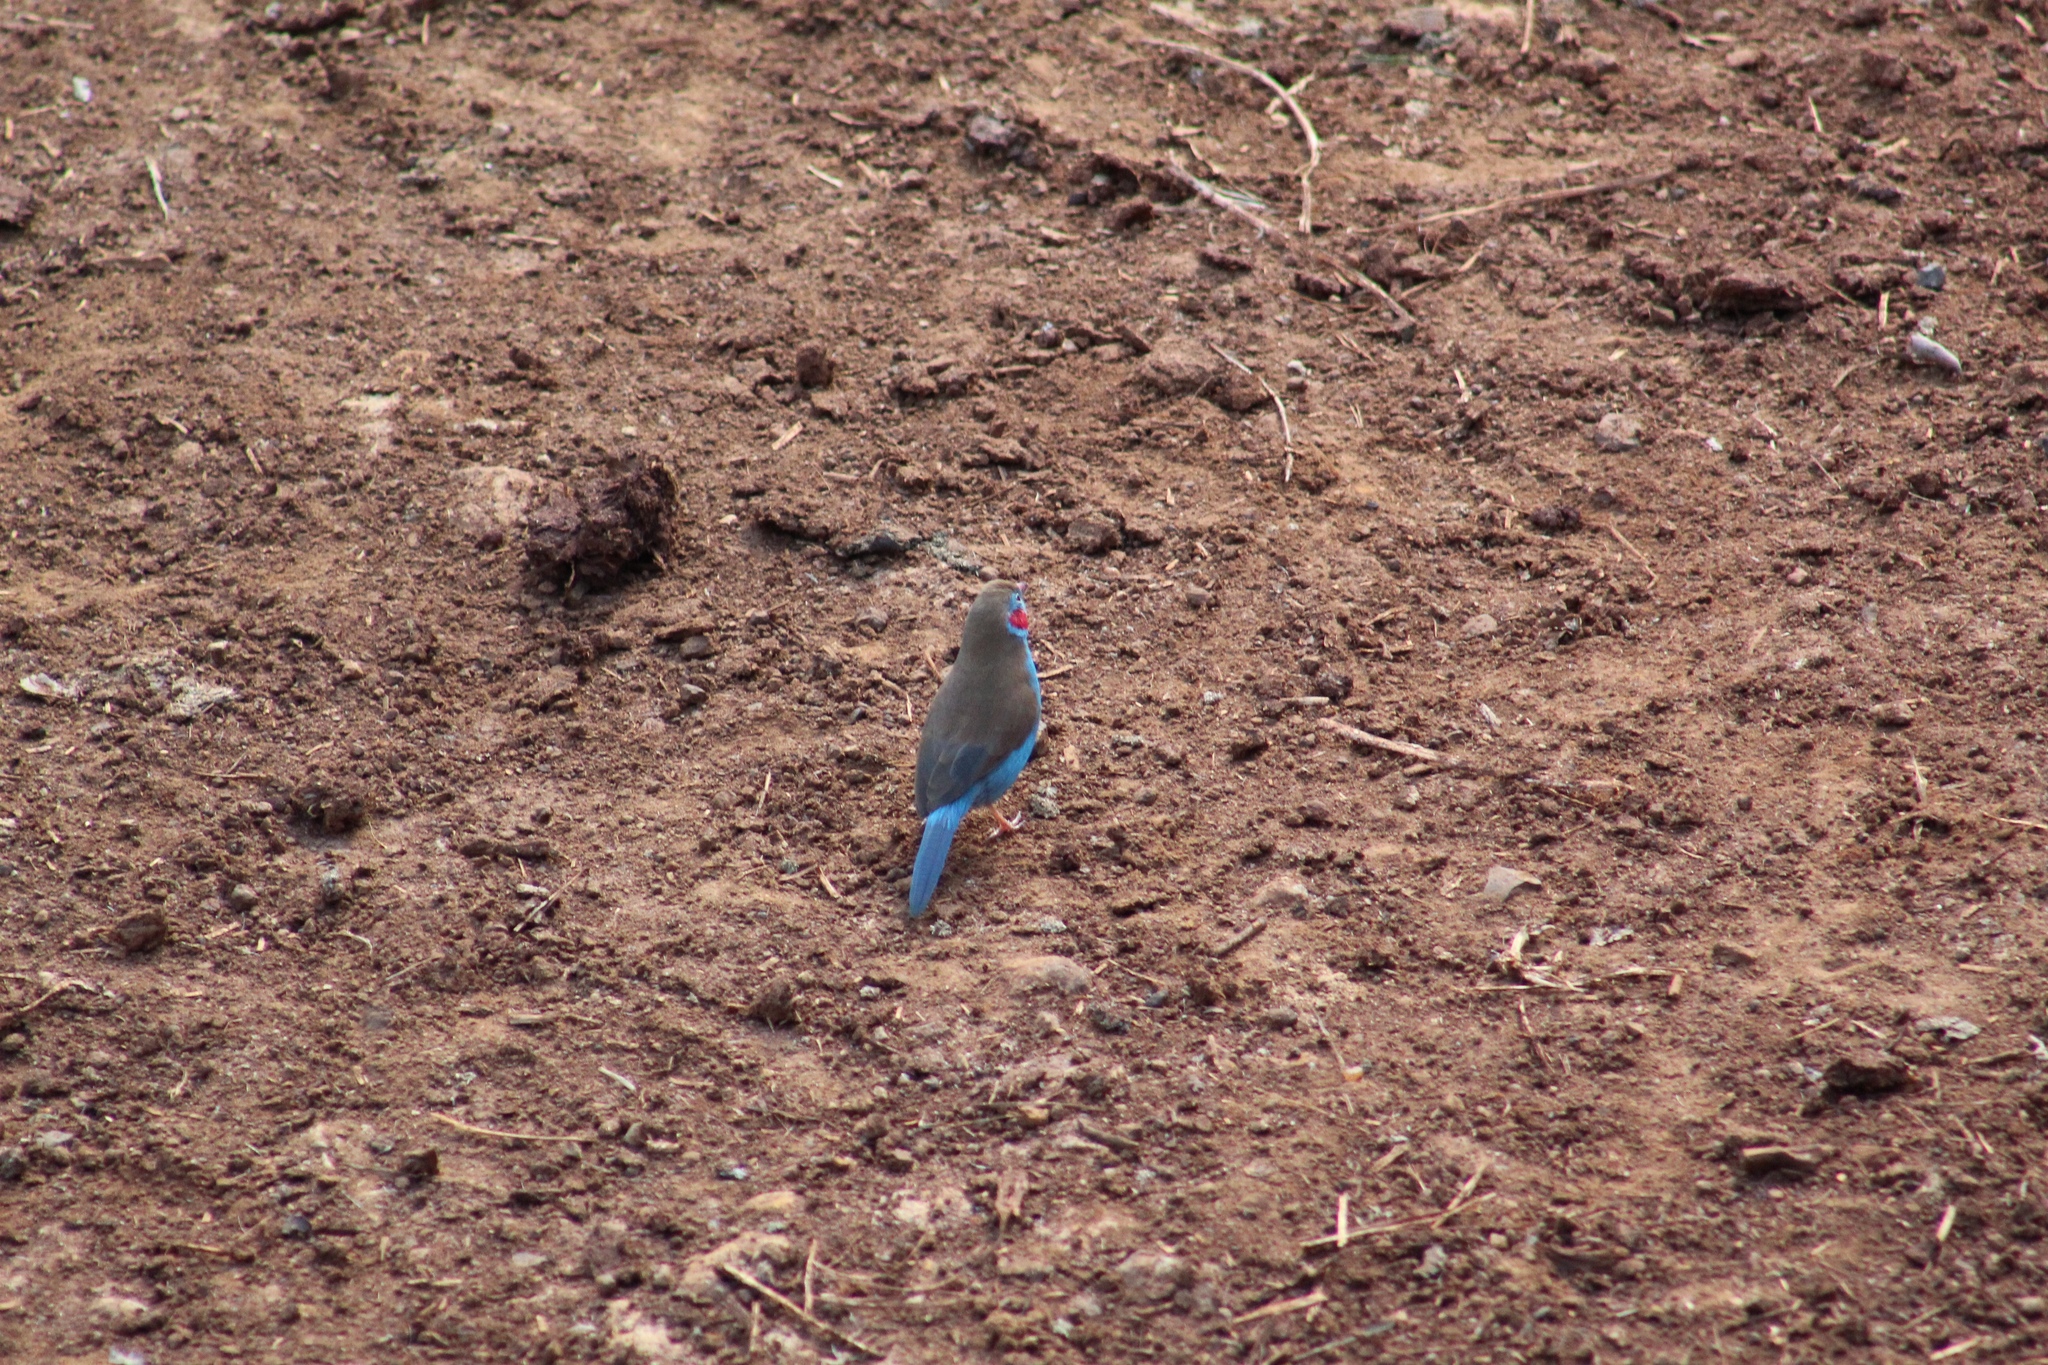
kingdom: Animalia
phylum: Chordata
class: Aves
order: Passeriformes
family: Estrildidae
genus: Uraeginthus
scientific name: Uraeginthus bengalus
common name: Red-cheeked cordon-bleu
